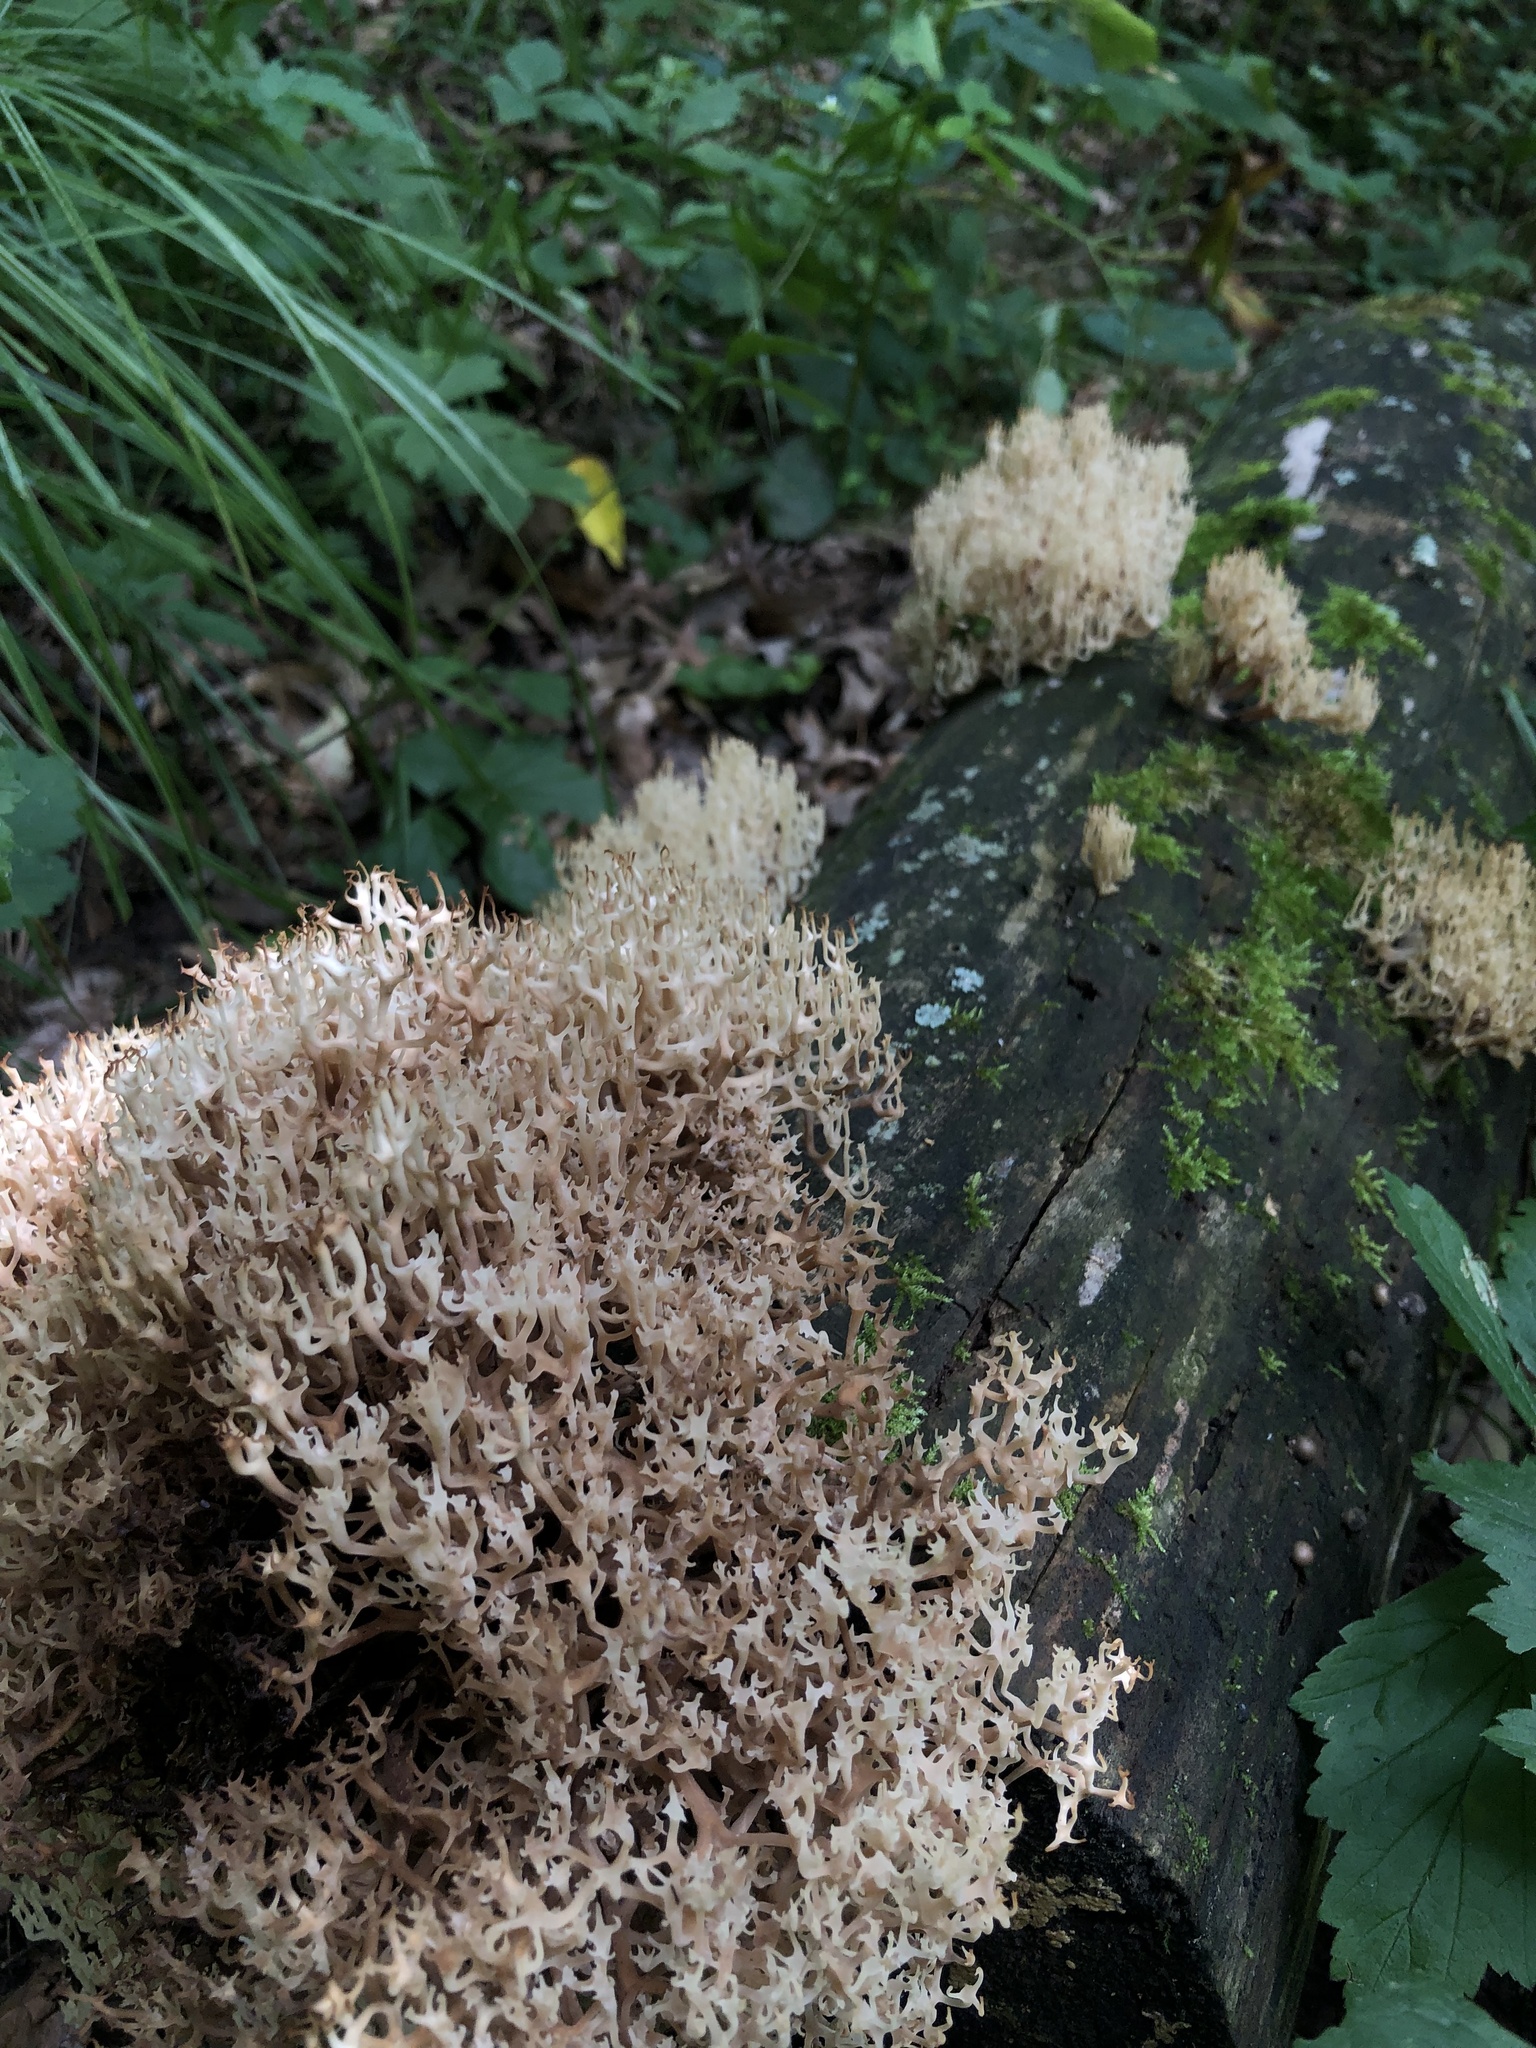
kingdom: Fungi
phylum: Basidiomycota
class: Agaricomycetes
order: Russulales
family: Auriscalpiaceae
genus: Artomyces
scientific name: Artomyces pyxidatus
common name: Crown-tipped coral fungus
